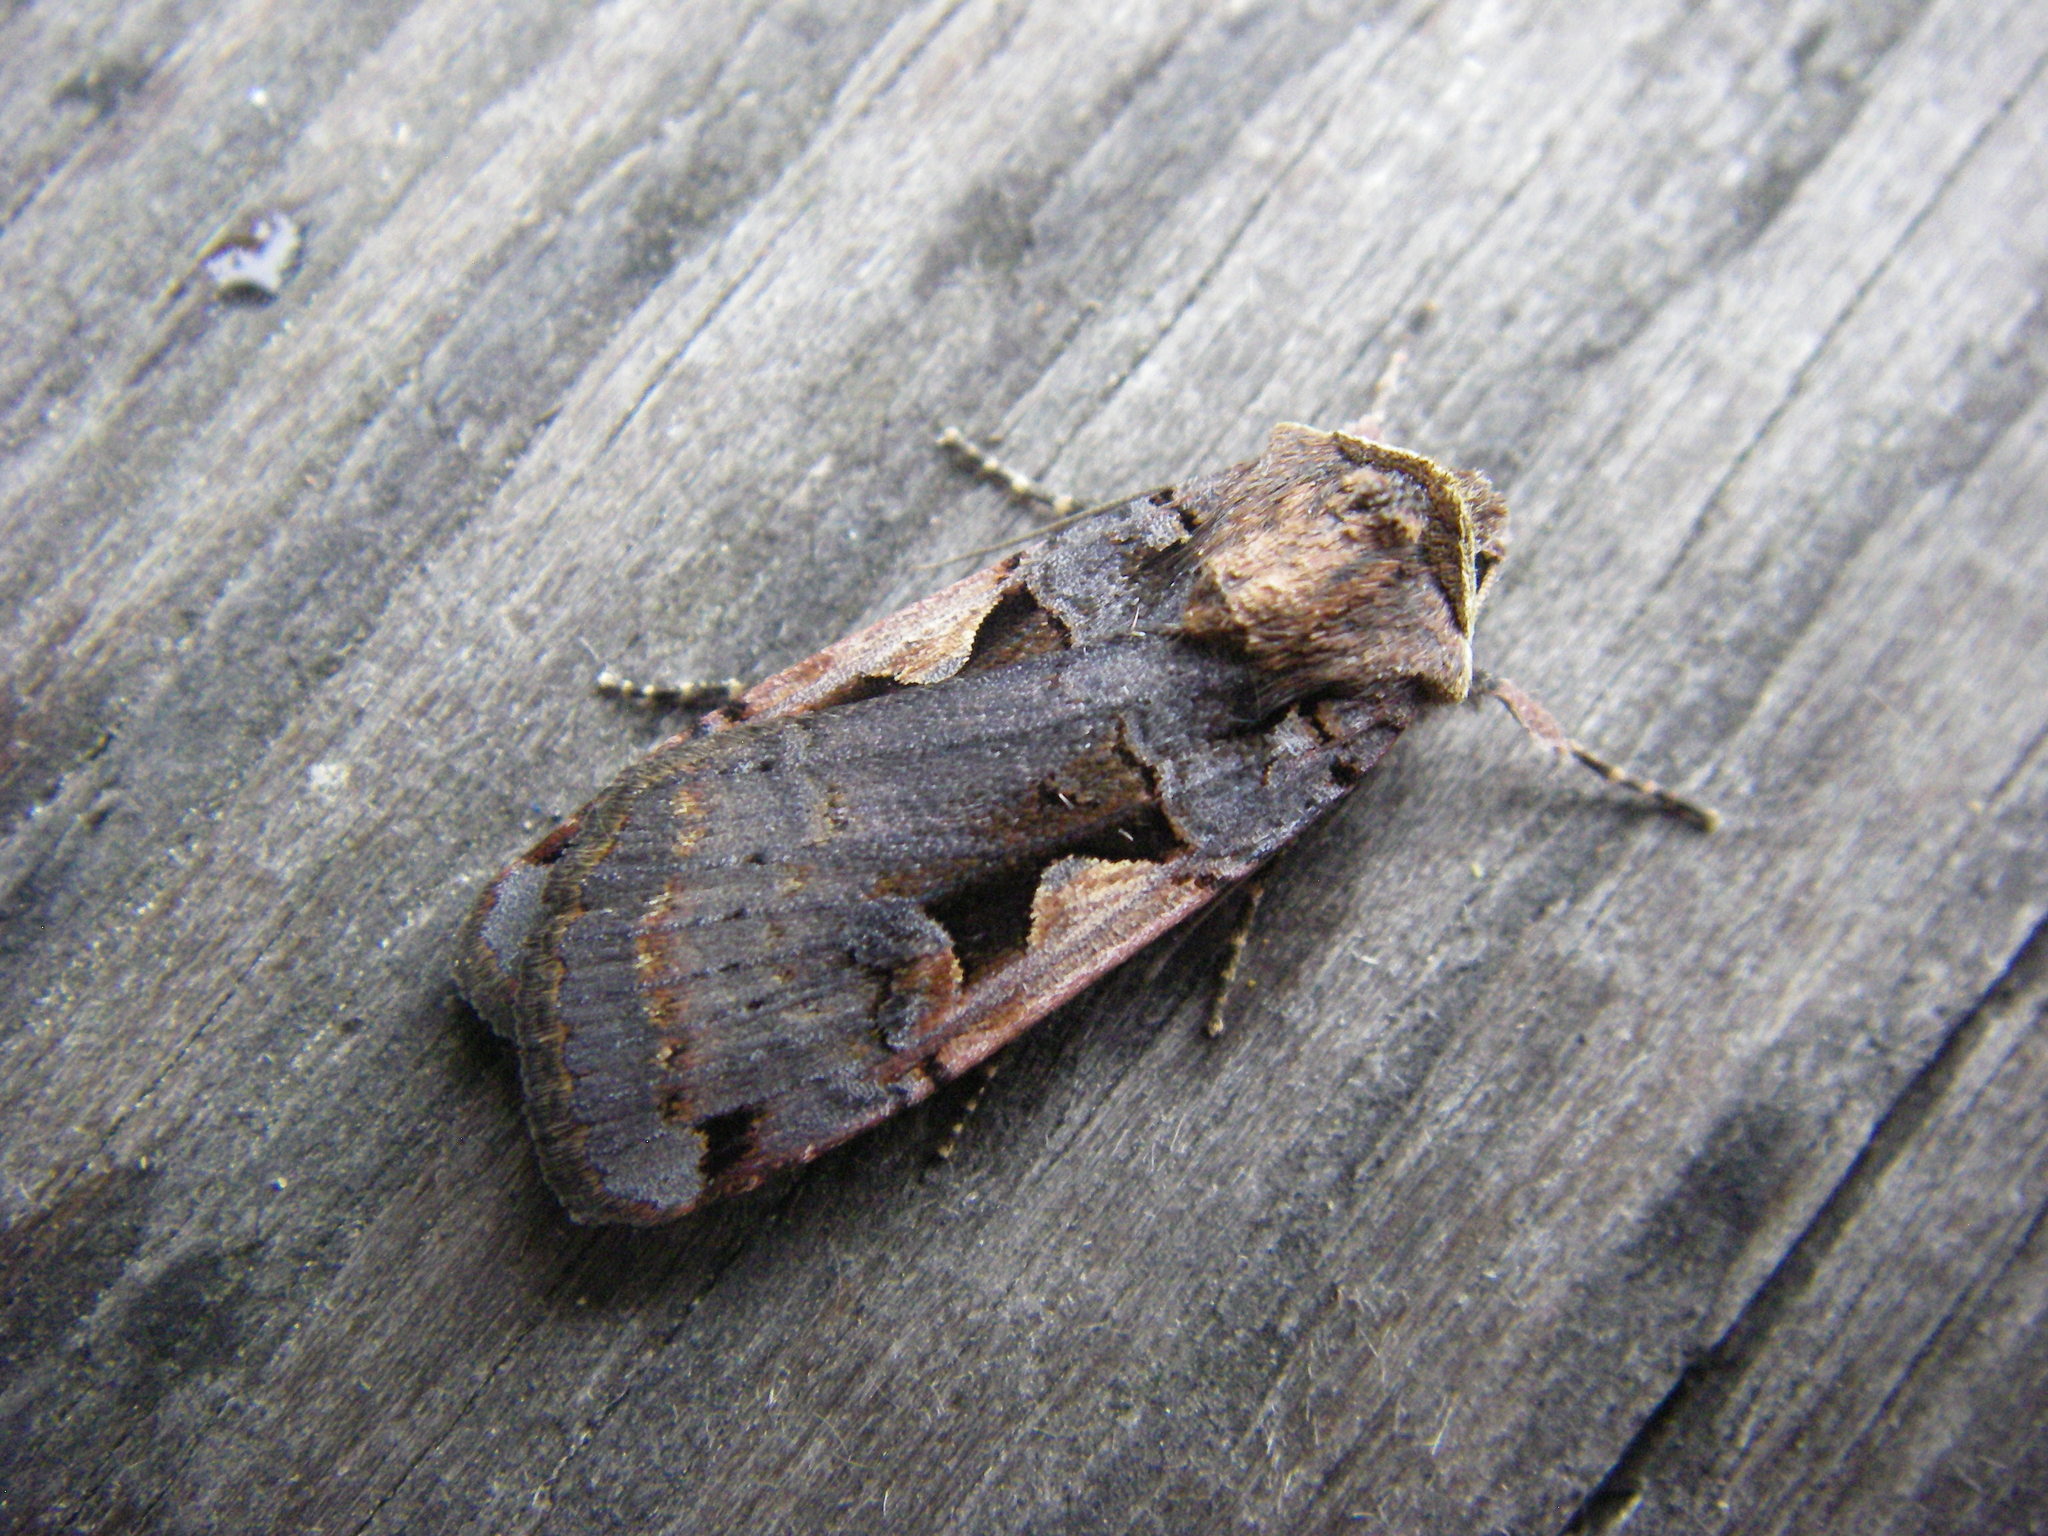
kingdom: Animalia
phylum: Arthropoda
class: Insecta
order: Lepidoptera
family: Noctuidae
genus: Xestia
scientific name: Xestia c-nigrum
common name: Setaceous hebrew character
